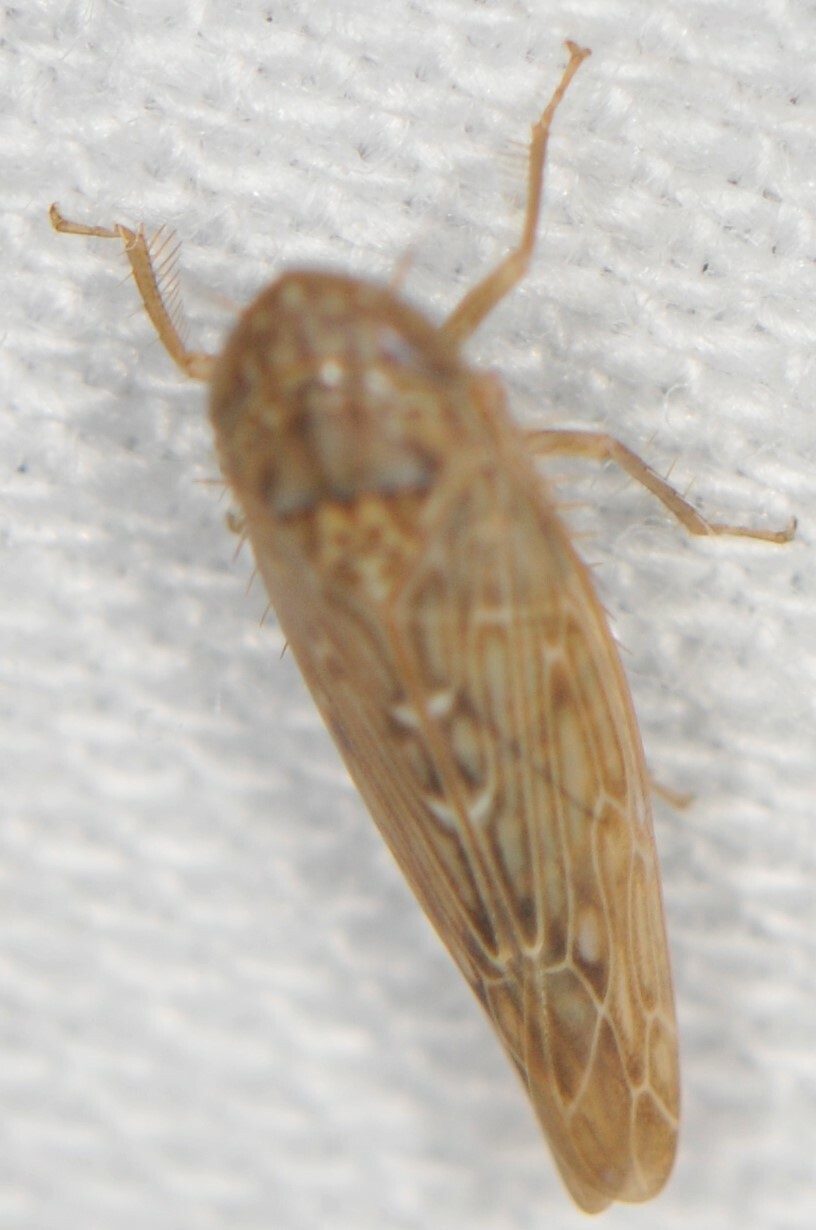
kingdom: Animalia
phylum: Arthropoda
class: Insecta
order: Hemiptera
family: Cicadellidae
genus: Doleranus
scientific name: Doleranus
